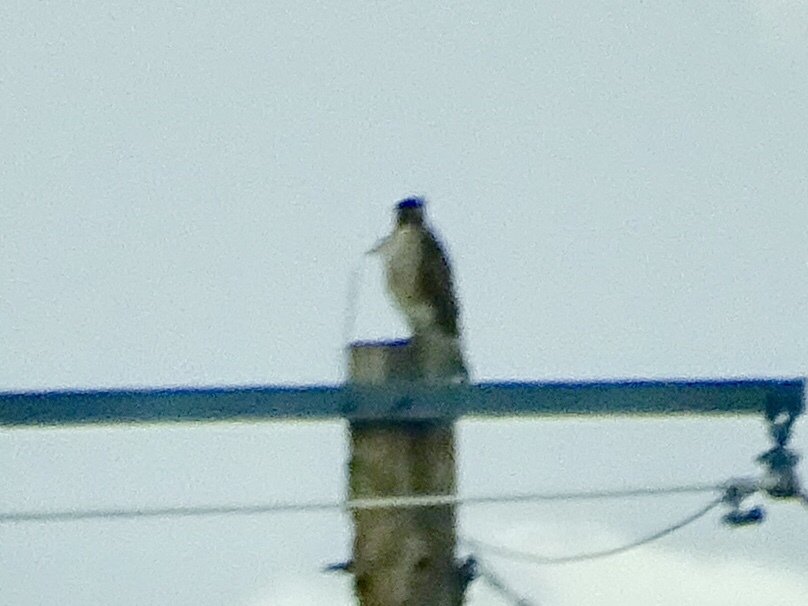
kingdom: Animalia
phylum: Chordata
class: Aves
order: Accipitriformes
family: Accipitridae
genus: Buteo
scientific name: Buteo jamaicensis
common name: Red-tailed hawk
